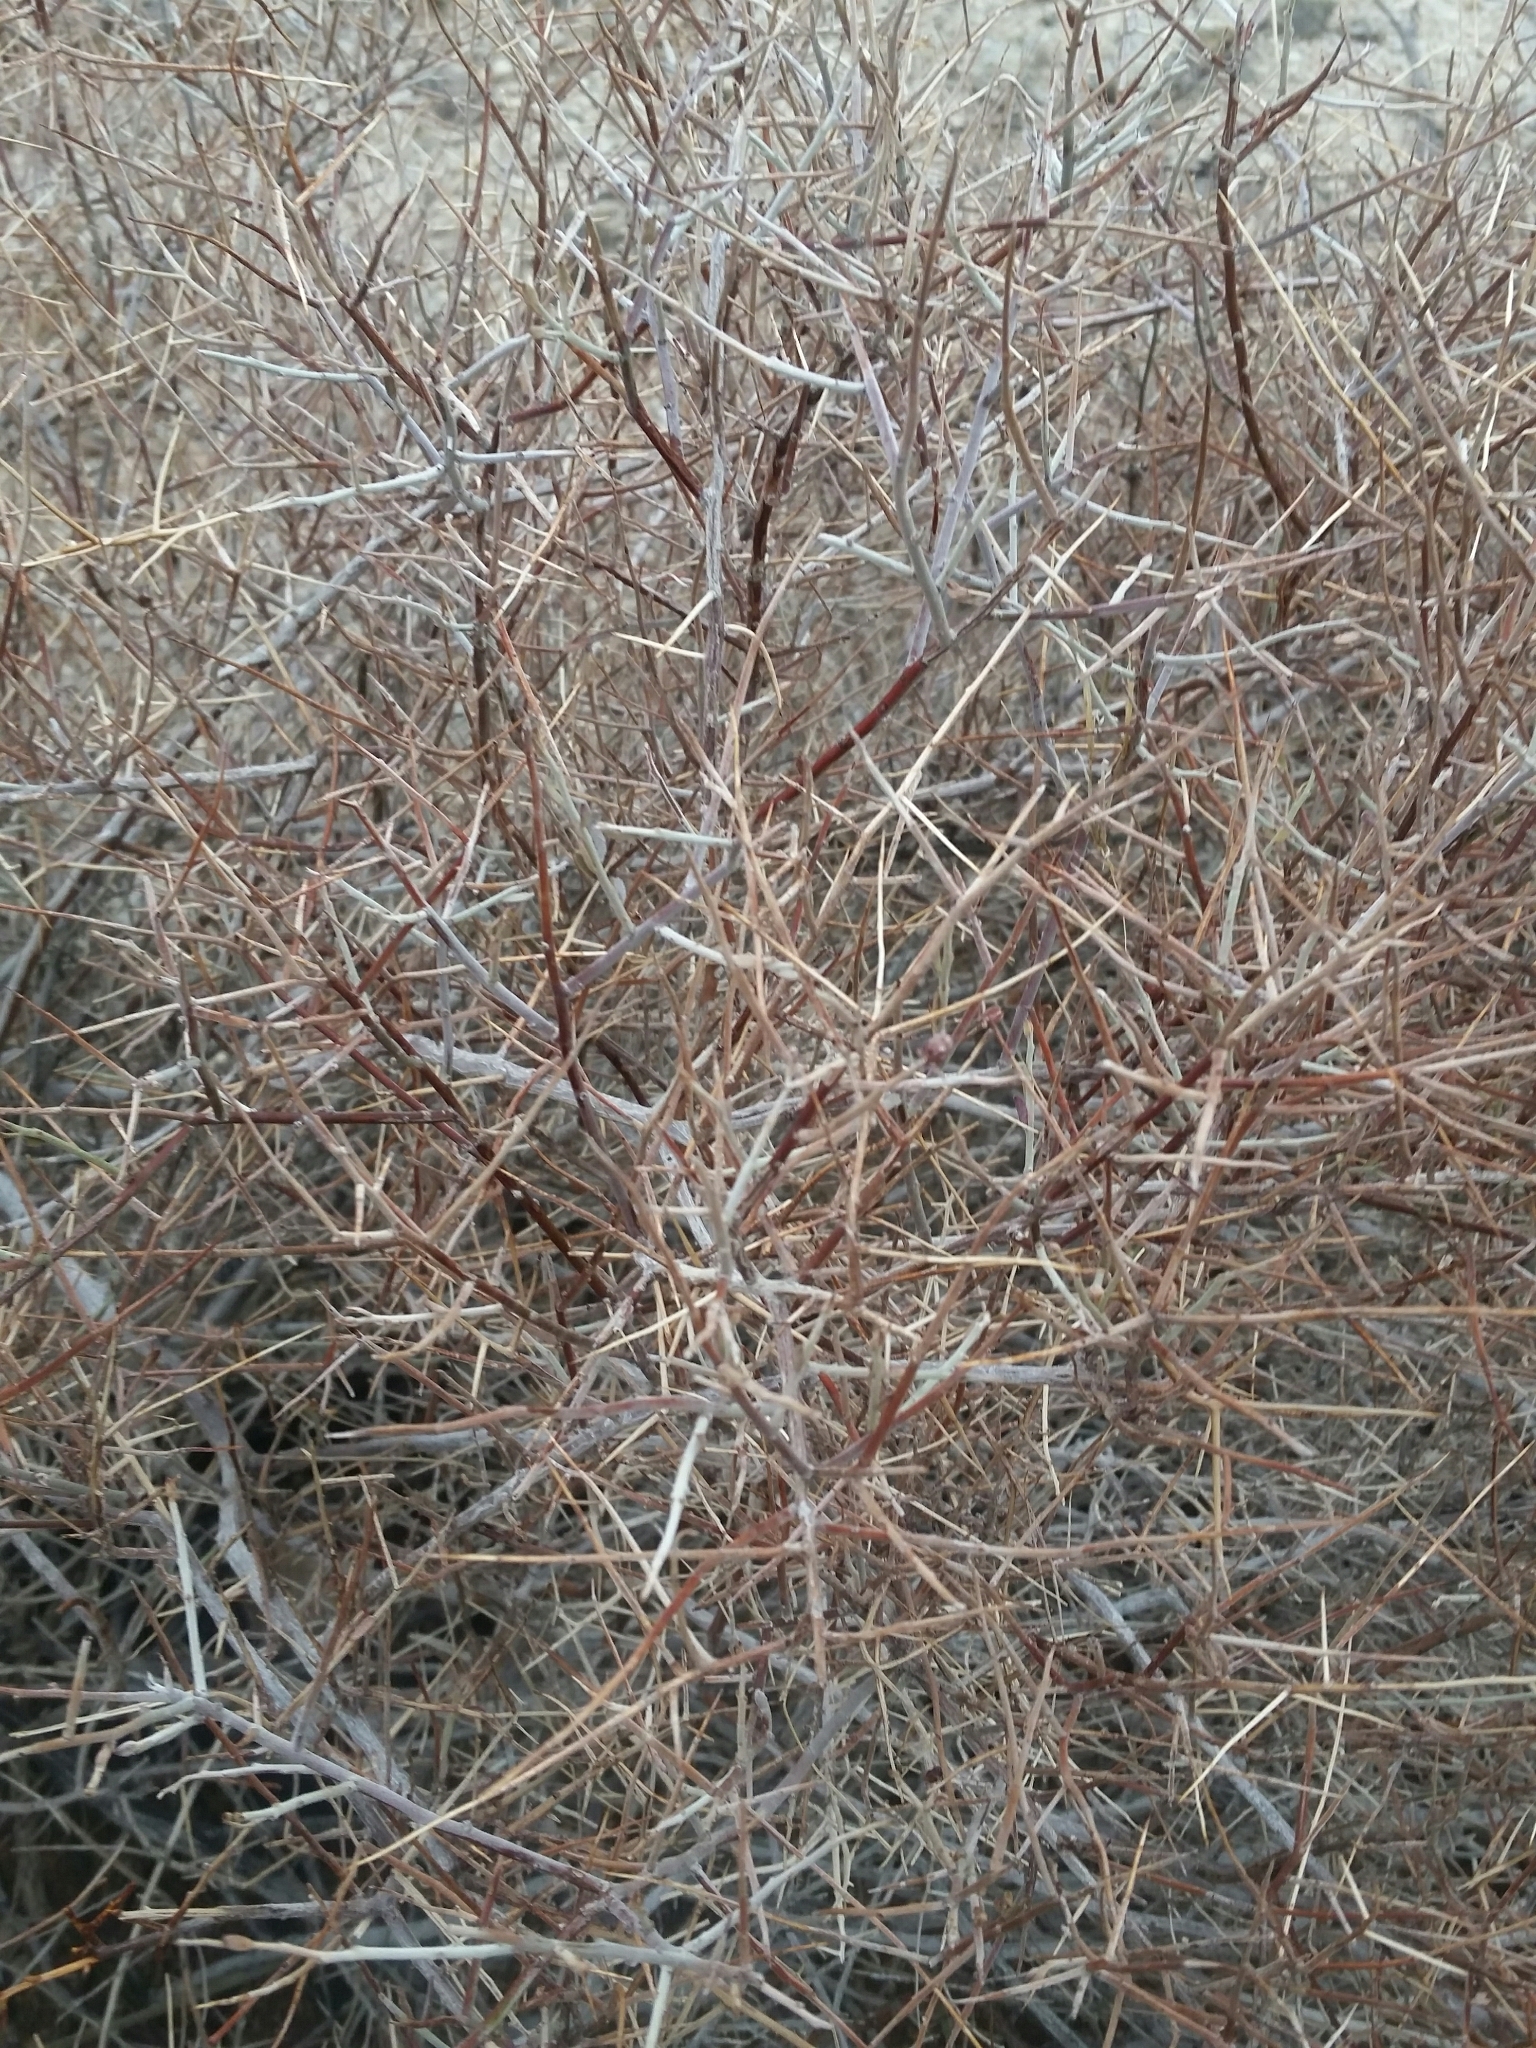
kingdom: Plantae
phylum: Tracheophyta
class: Magnoliopsida
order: Zygophyllales
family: Krameriaceae
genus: Krameria
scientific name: Krameria bicolor
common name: White ratany
